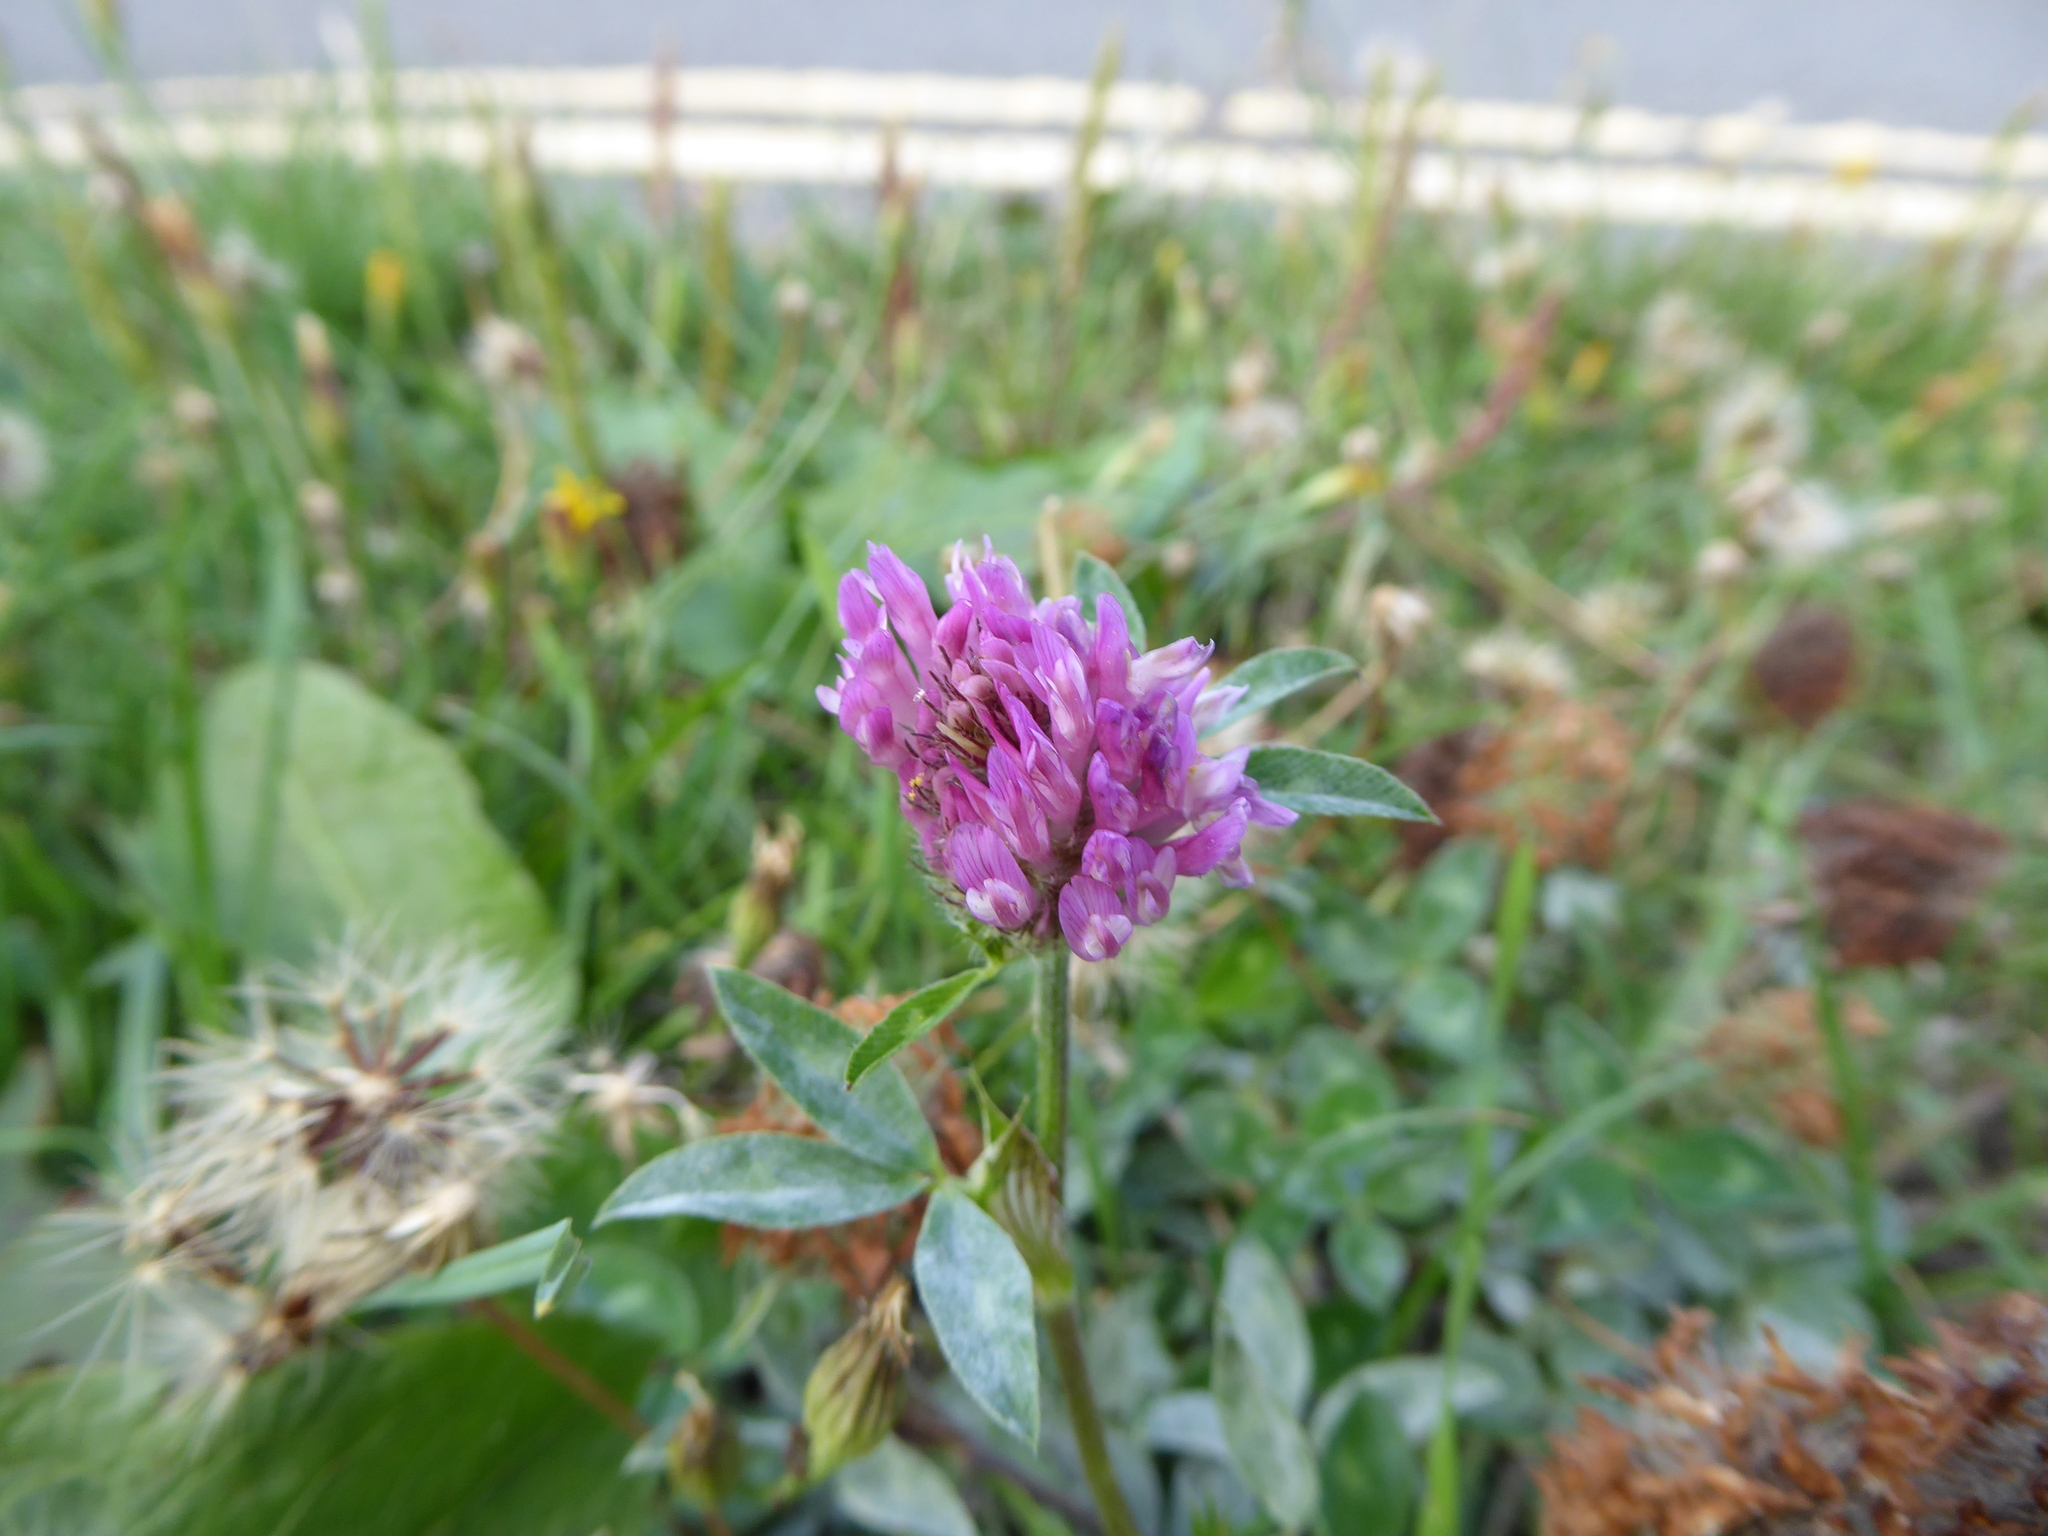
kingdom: Plantae
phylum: Tracheophyta
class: Magnoliopsida
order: Fabales
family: Fabaceae
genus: Trifolium
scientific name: Trifolium pratense
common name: Red clover
